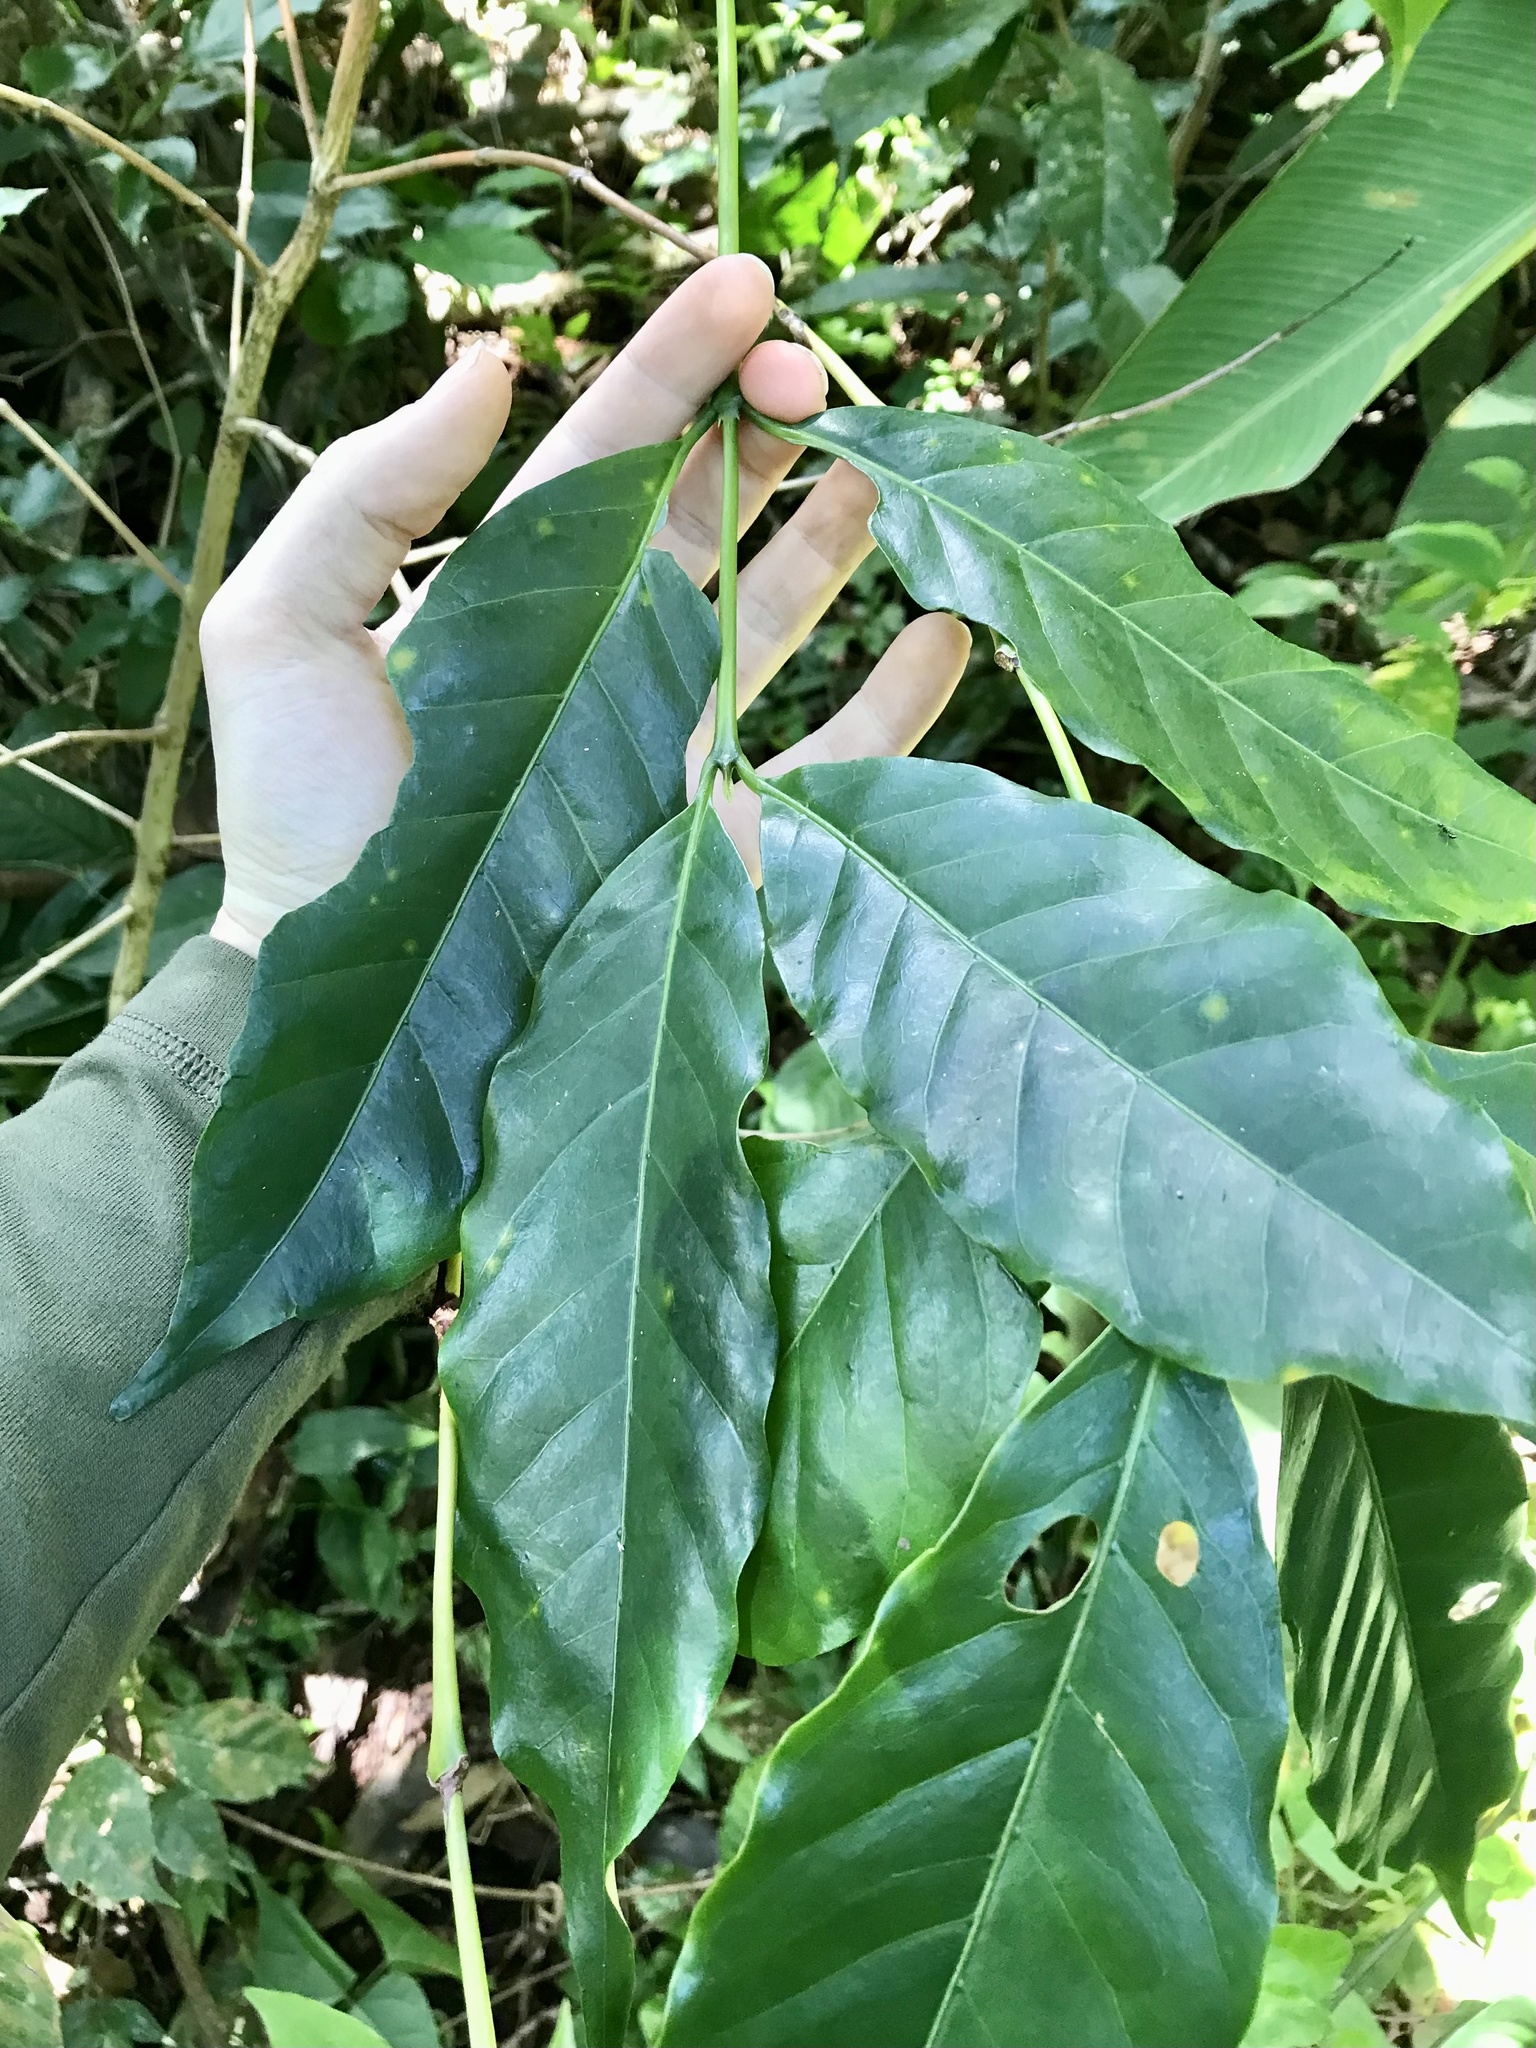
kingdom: Plantae
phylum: Tracheophyta
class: Magnoliopsida
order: Gentianales
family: Rubiaceae
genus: Coffea
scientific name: Coffea arabica
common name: Coffee
